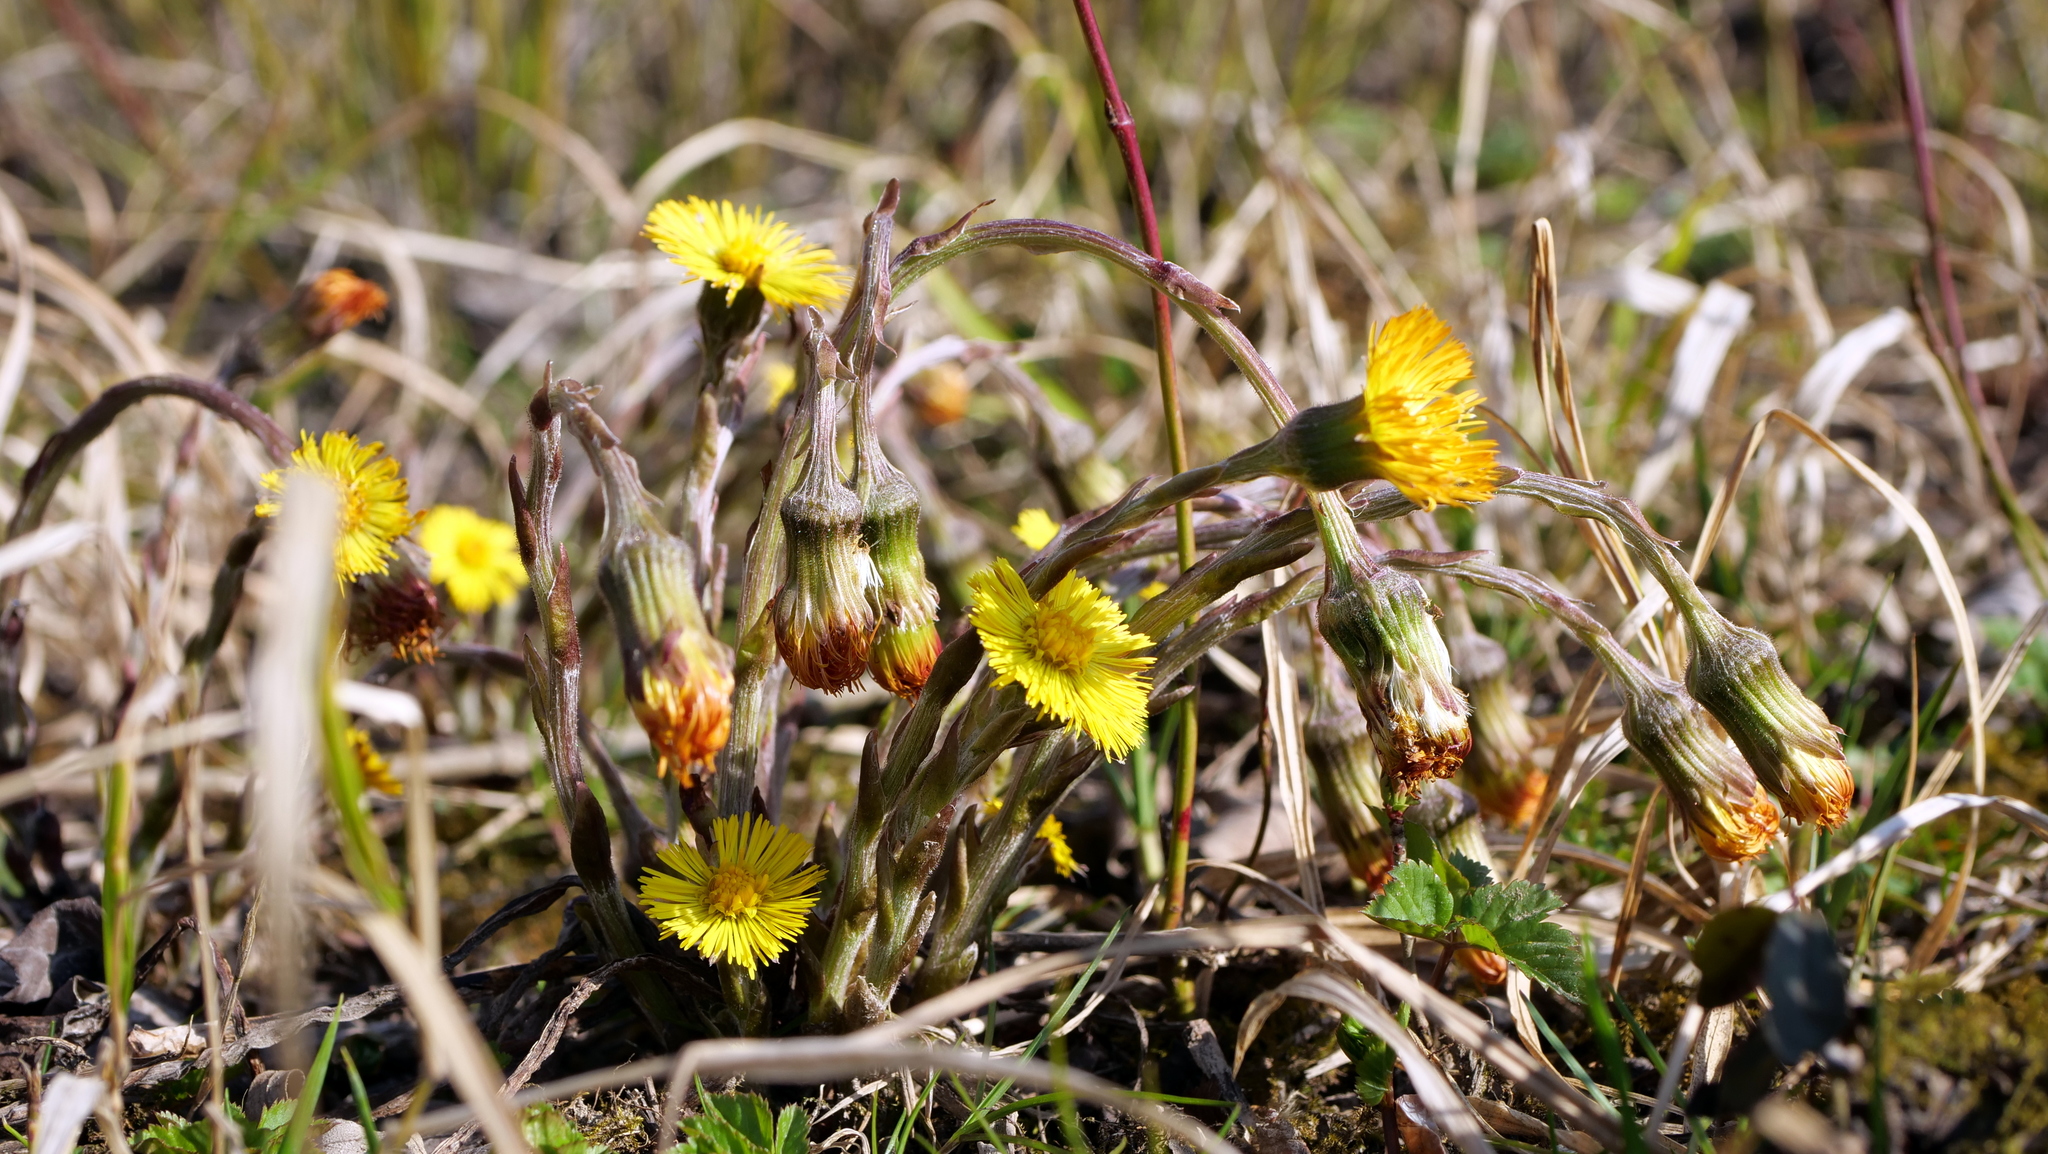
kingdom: Plantae
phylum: Tracheophyta
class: Magnoliopsida
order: Asterales
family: Asteraceae
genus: Tussilago
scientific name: Tussilago farfara
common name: Coltsfoot
